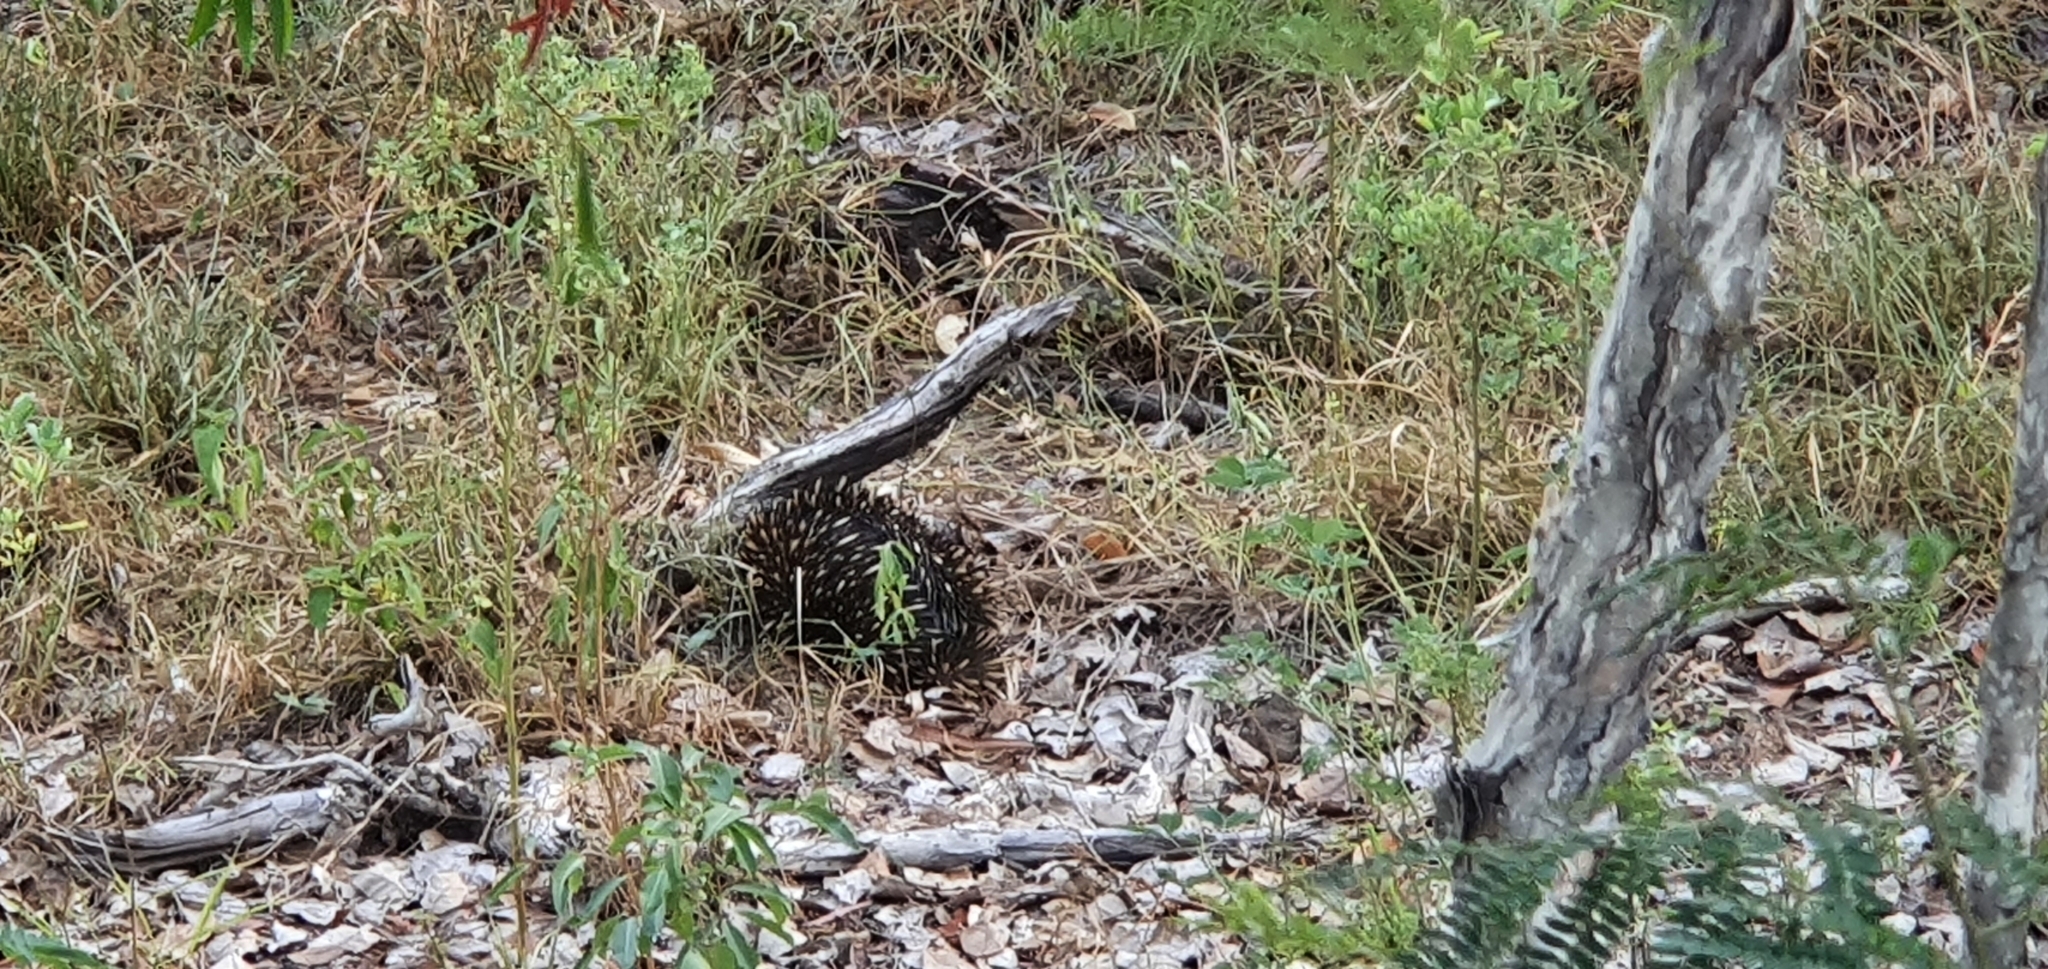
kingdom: Animalia
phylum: Chordata
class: Mammalia
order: Monotremata
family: Tachyglossidae
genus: Tachyglossus
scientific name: Tachyglossus aculeatus
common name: Short-beaked echidna
